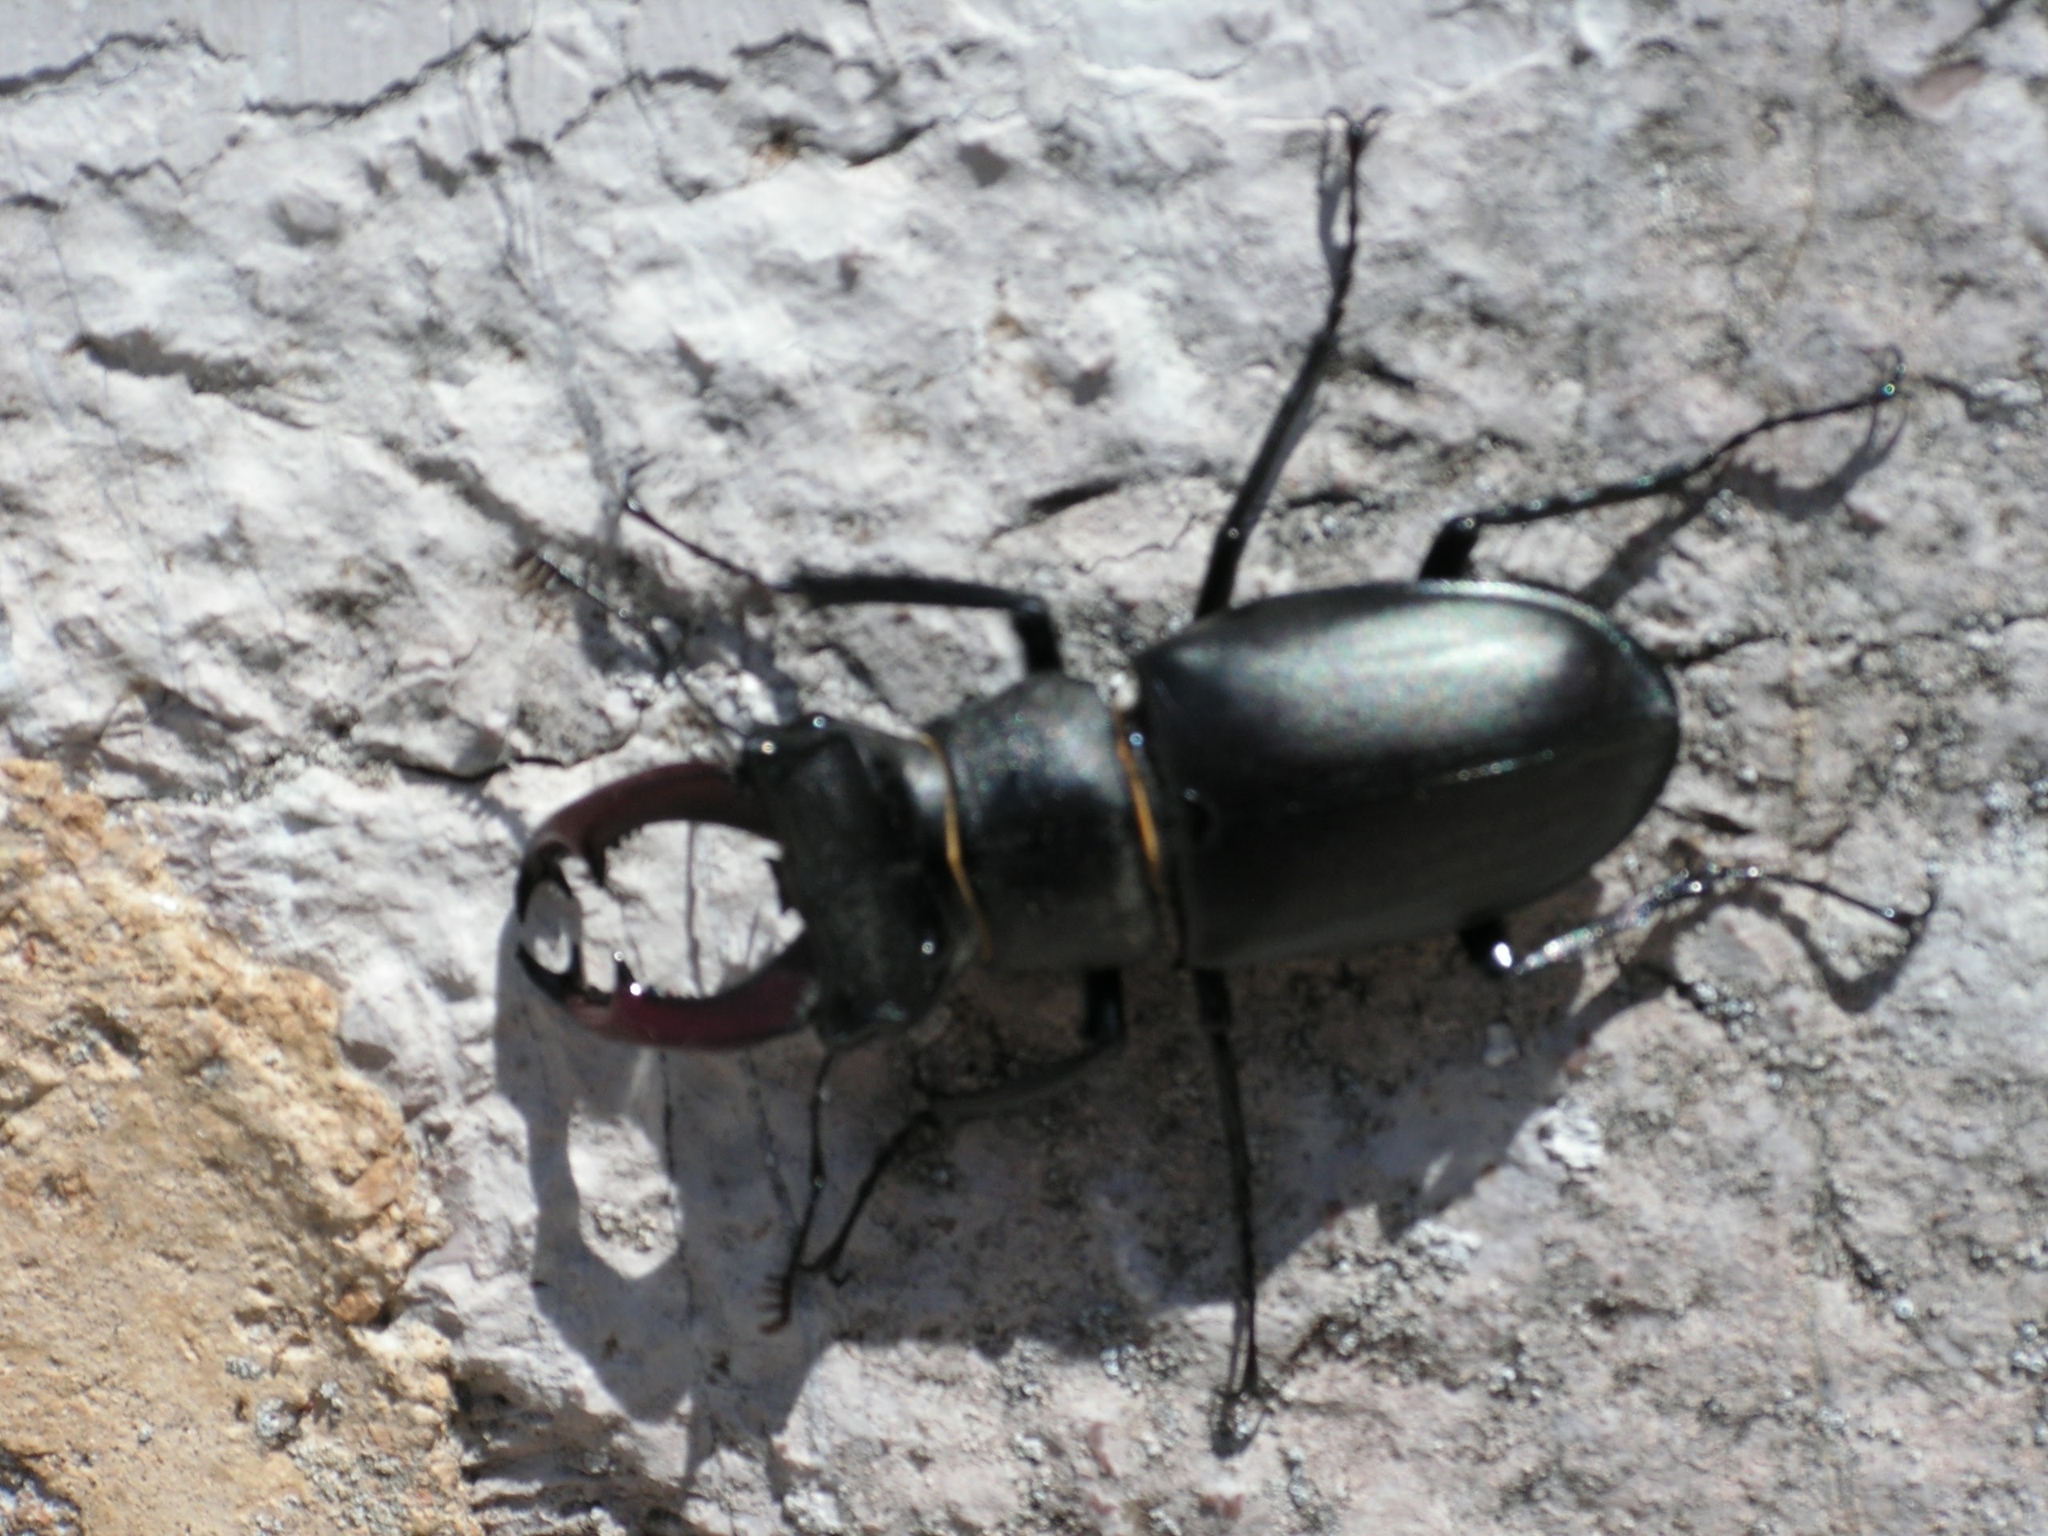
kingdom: Animalia
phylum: Arthropoda
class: Insecta
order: Coleoptera
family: Lucanidae
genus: Lucanus
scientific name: Lucanus cervus
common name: Stag beetle
